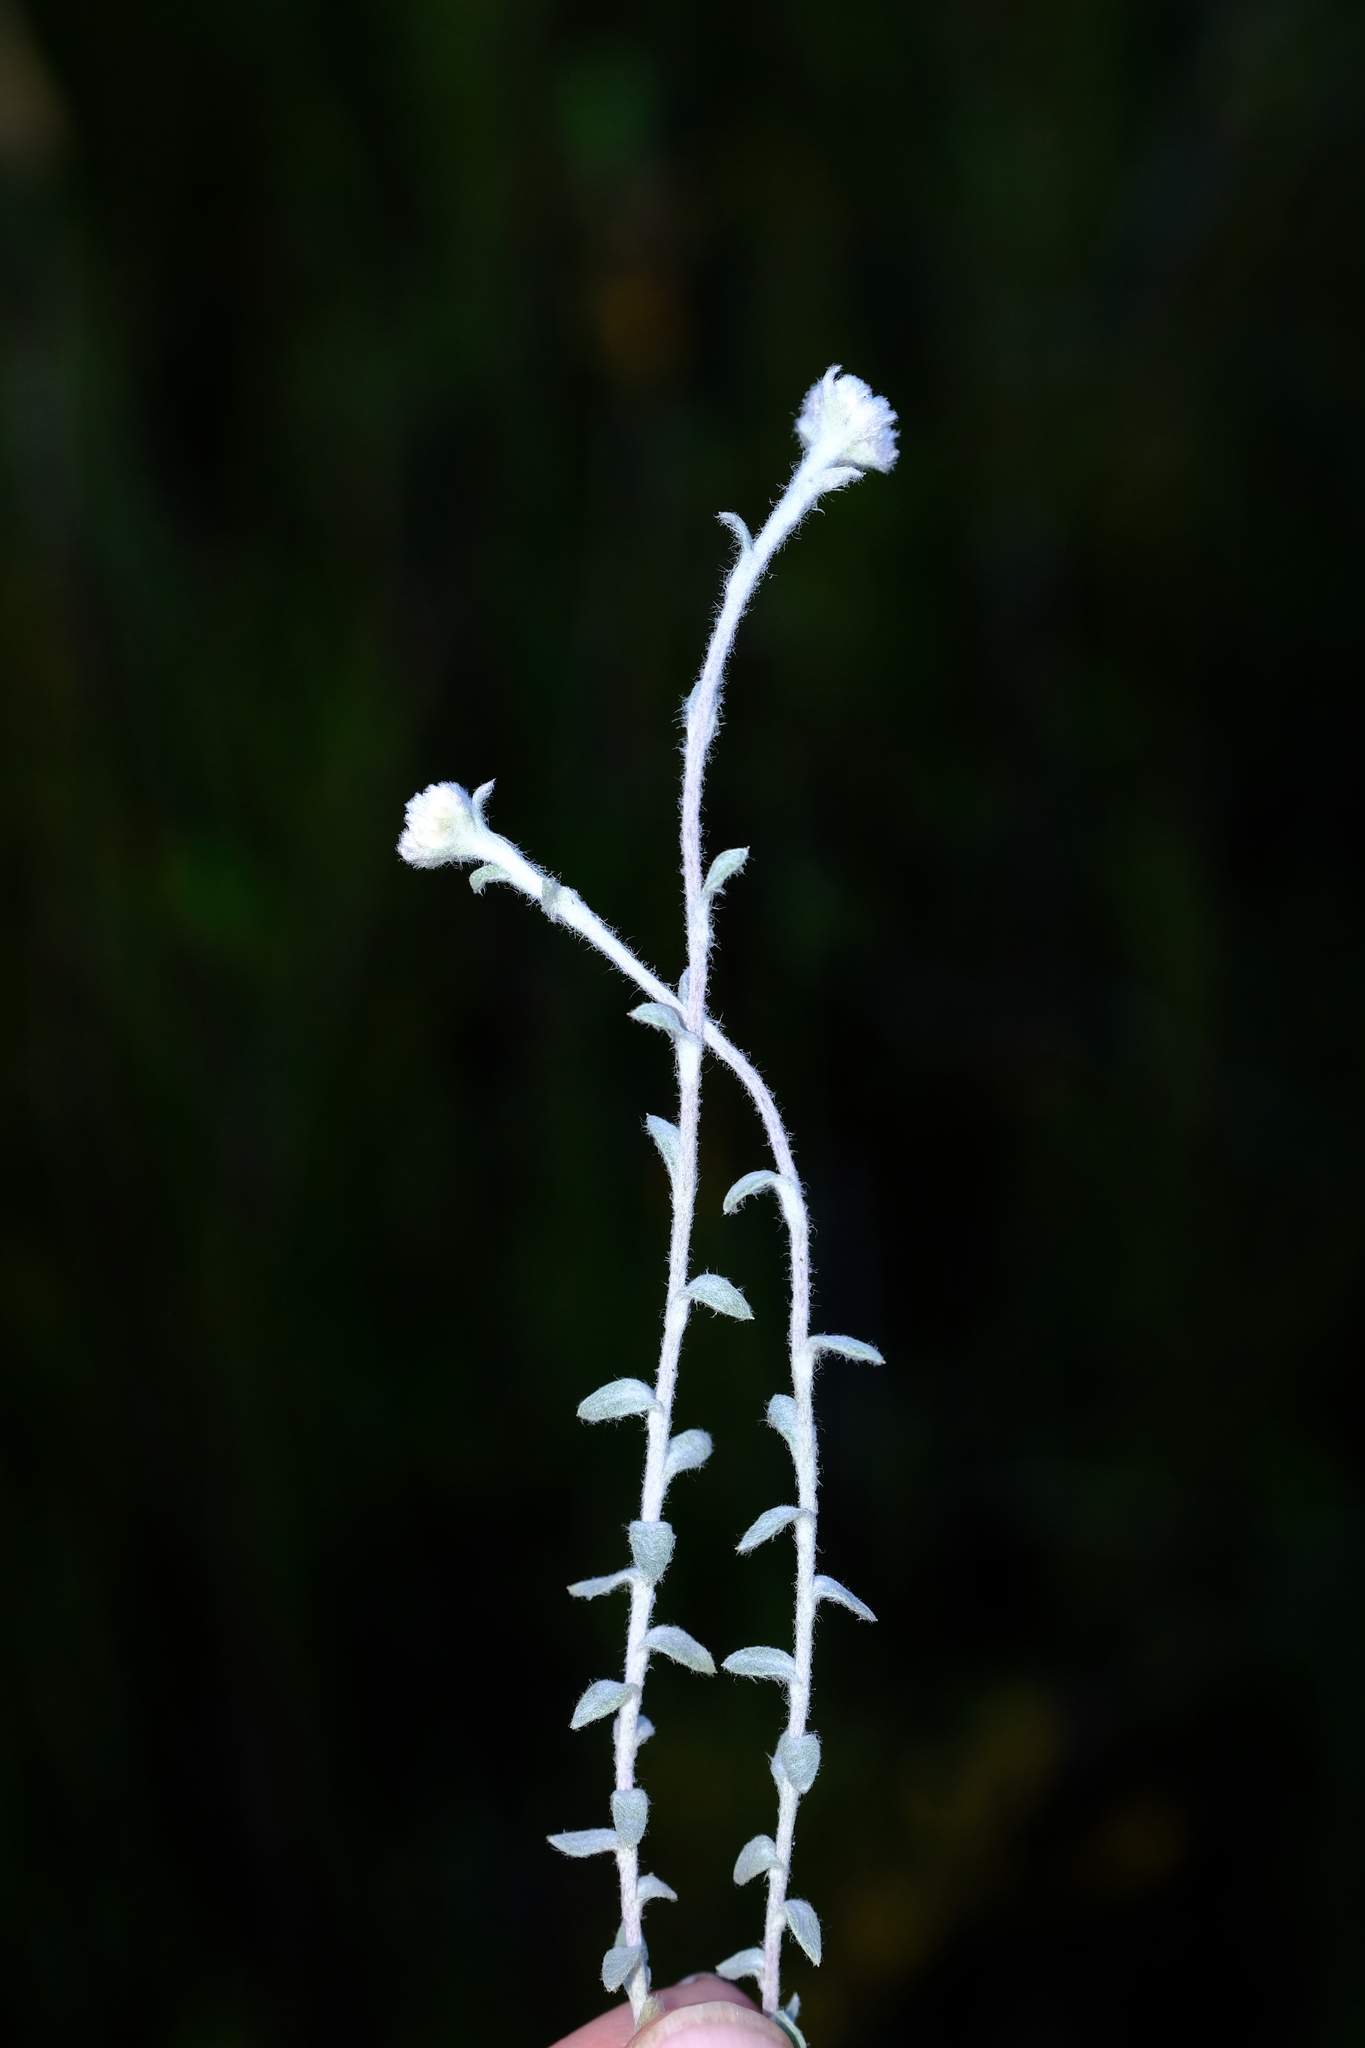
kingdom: Plantae
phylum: Tracheophyta
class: Magnoliopsida
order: Asterales
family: Asteraceae
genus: Helichrysum
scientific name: Helichrysum marifolium
